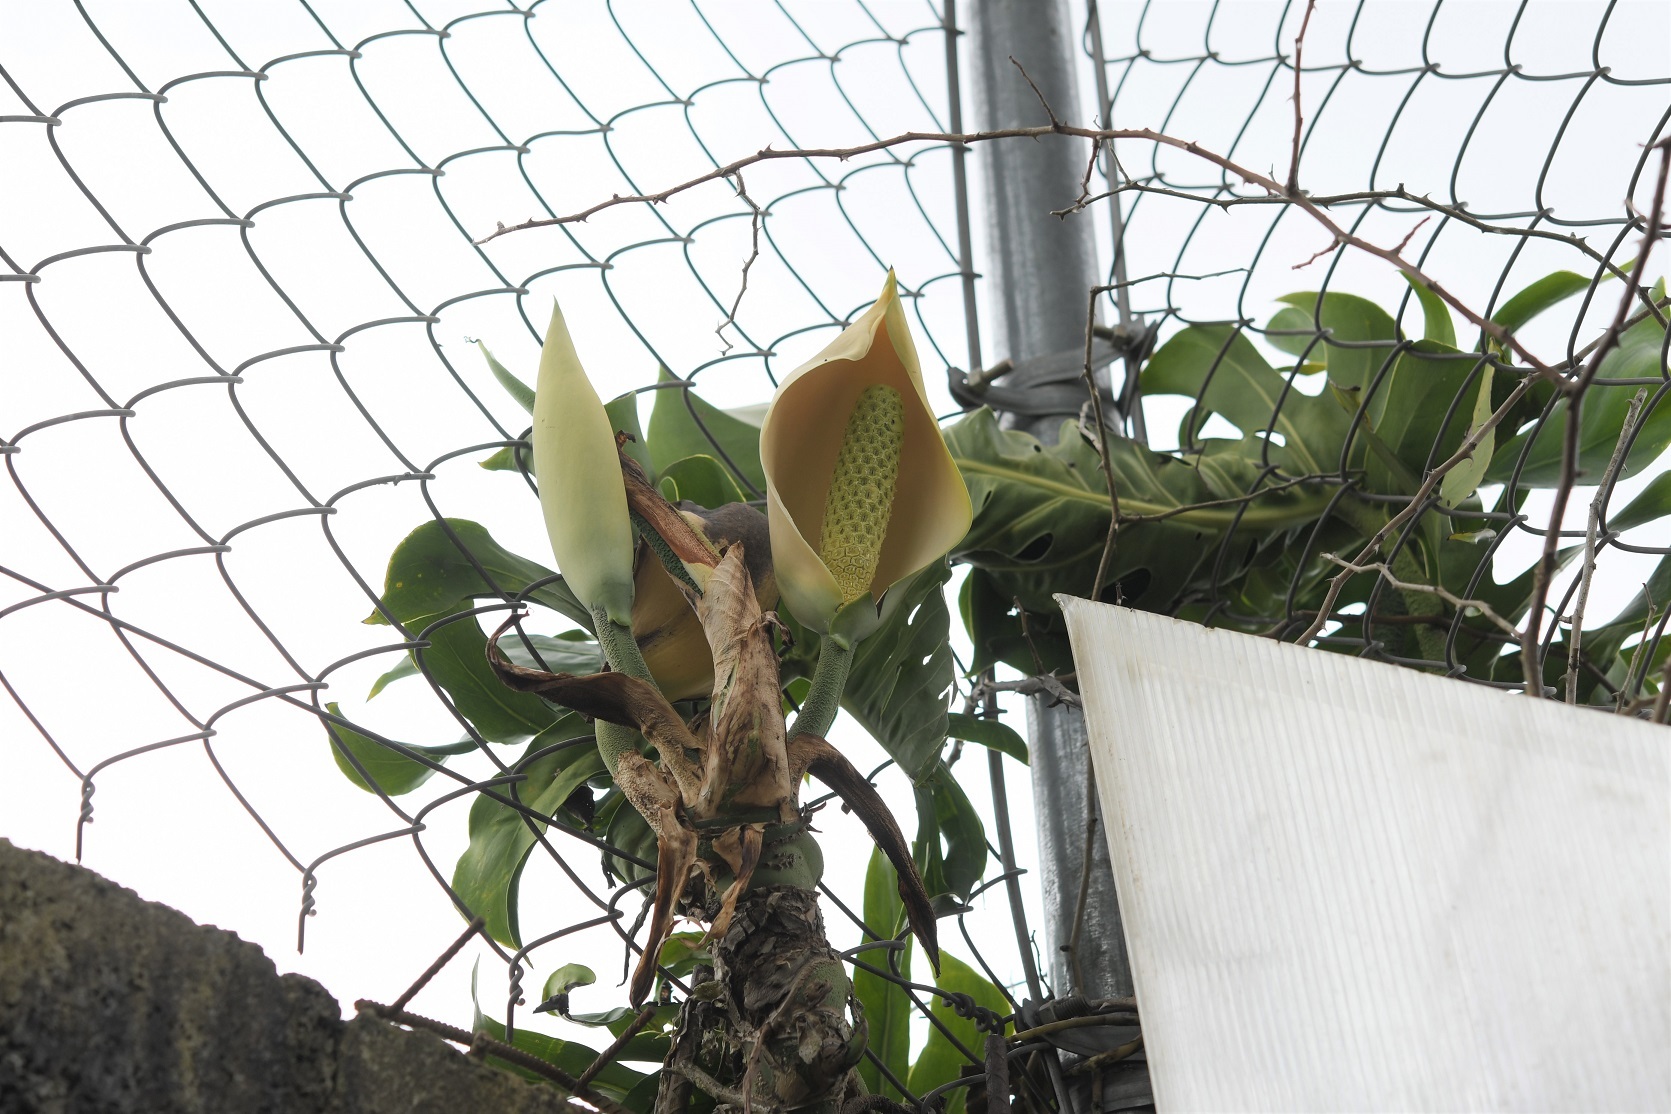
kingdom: Plantae
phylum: Tracheophyta
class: Liliopsida
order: Alismatales
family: Araceae
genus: Monstera
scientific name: Monstera deliciosa
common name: Cut-leaf-philodendron
